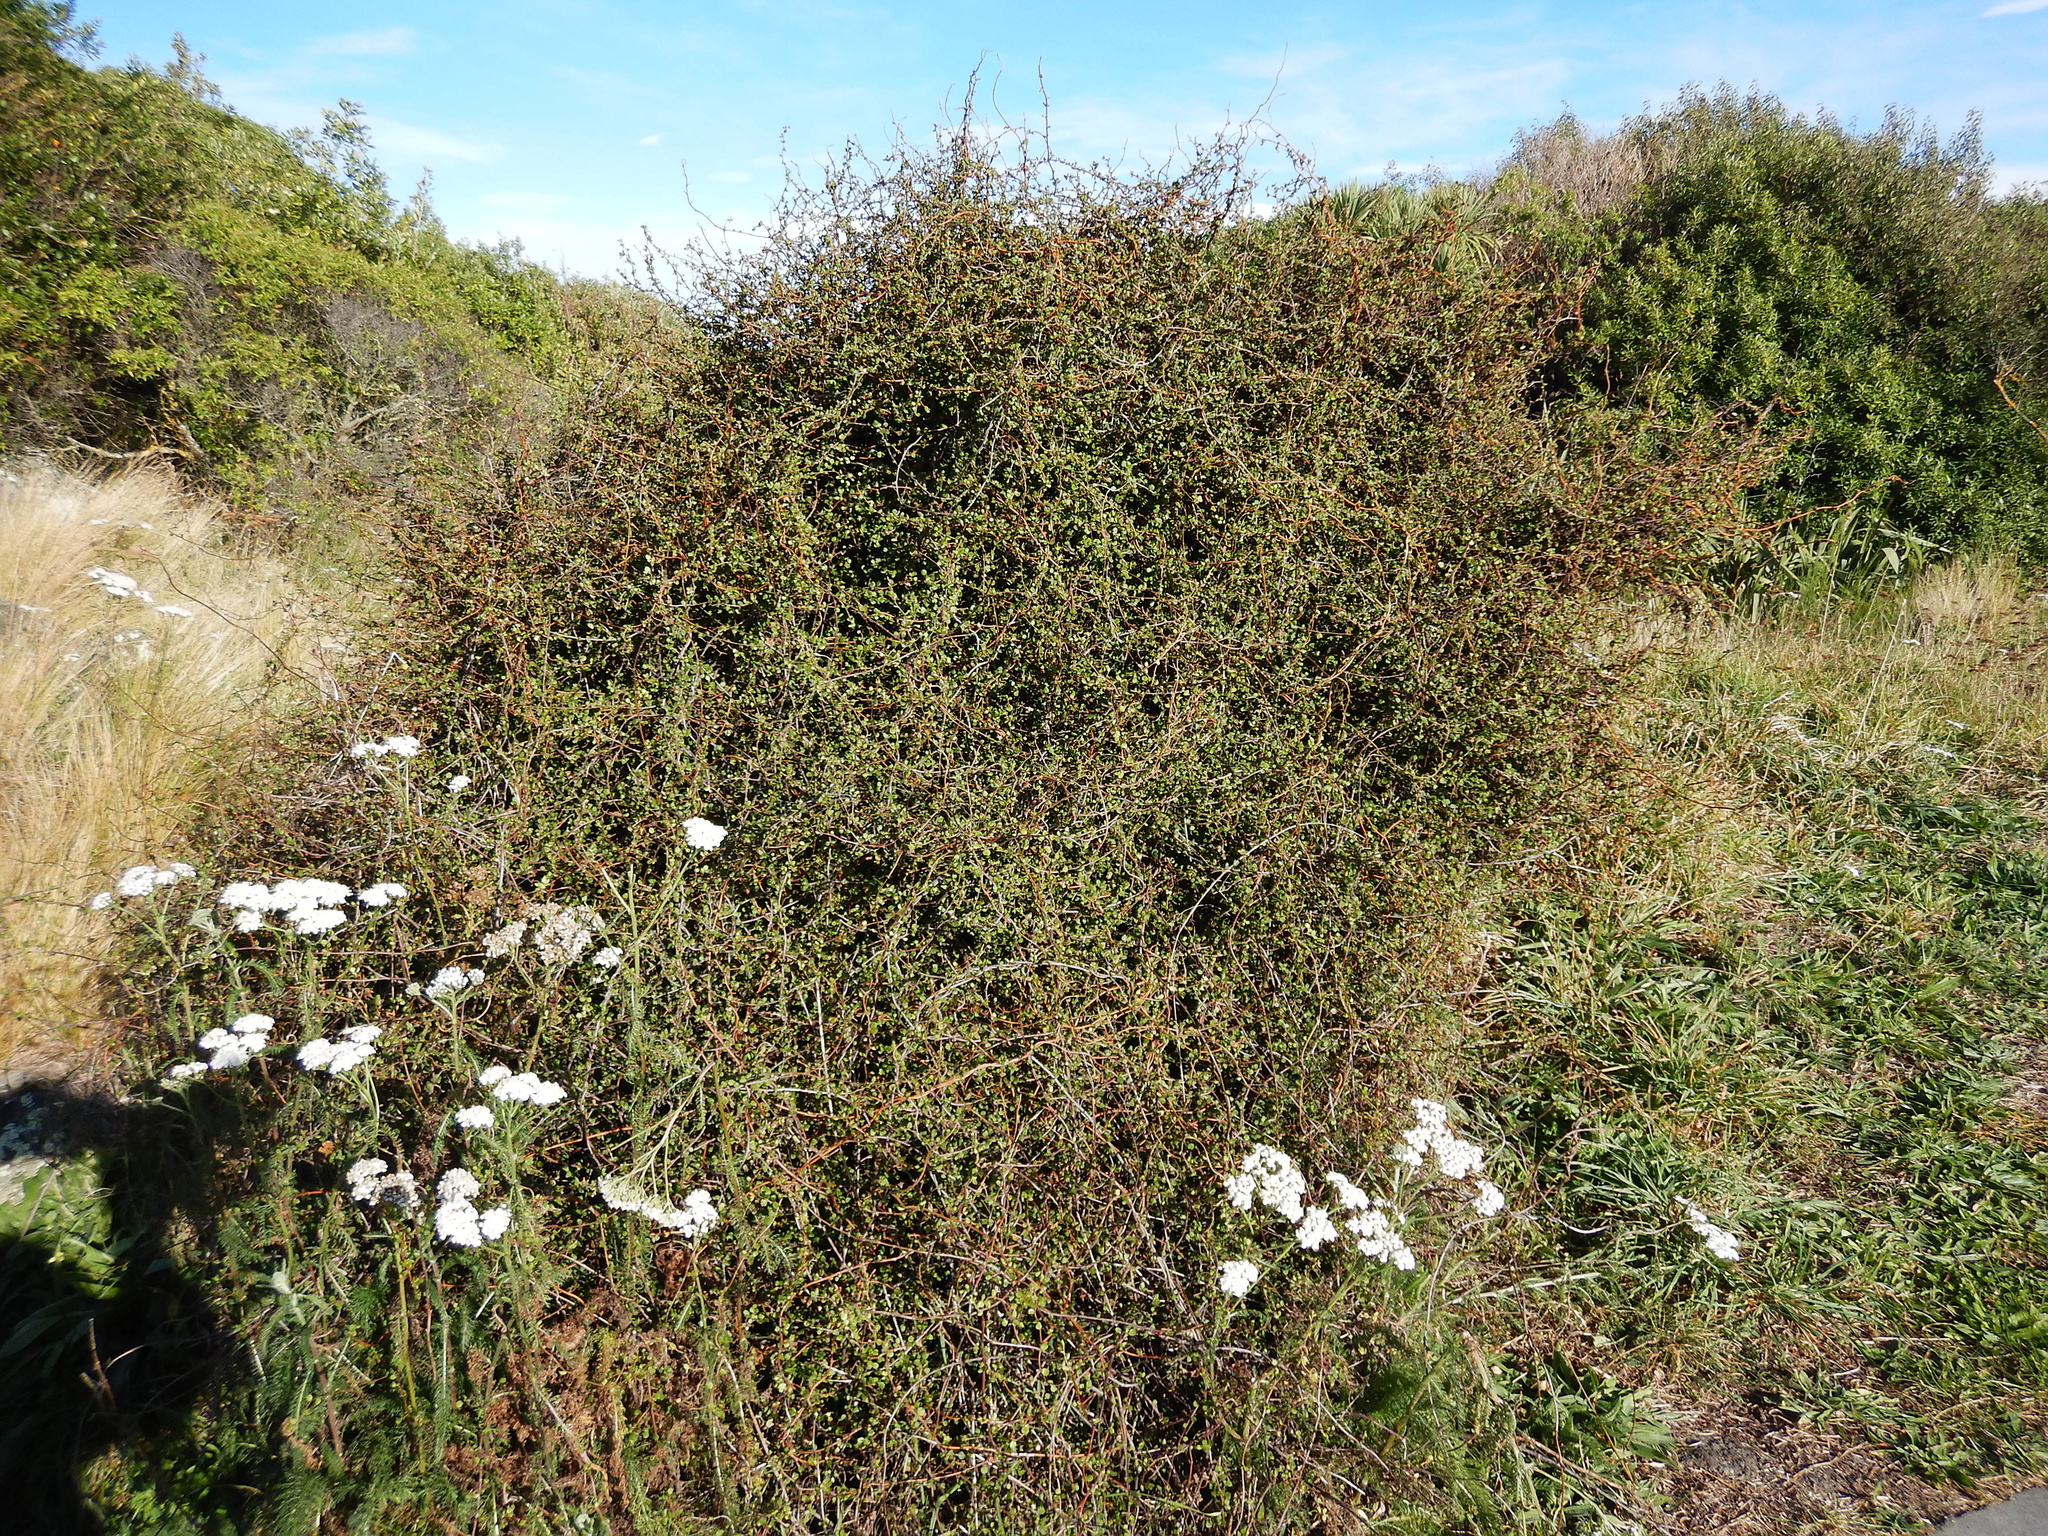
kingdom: Plantae
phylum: Tracheophyta
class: Magnoliopsida
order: Caryophyllales
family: Polygonaceae
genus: Muehlenbeckia
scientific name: Muehlenbeckia complexa
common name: Wireplant
